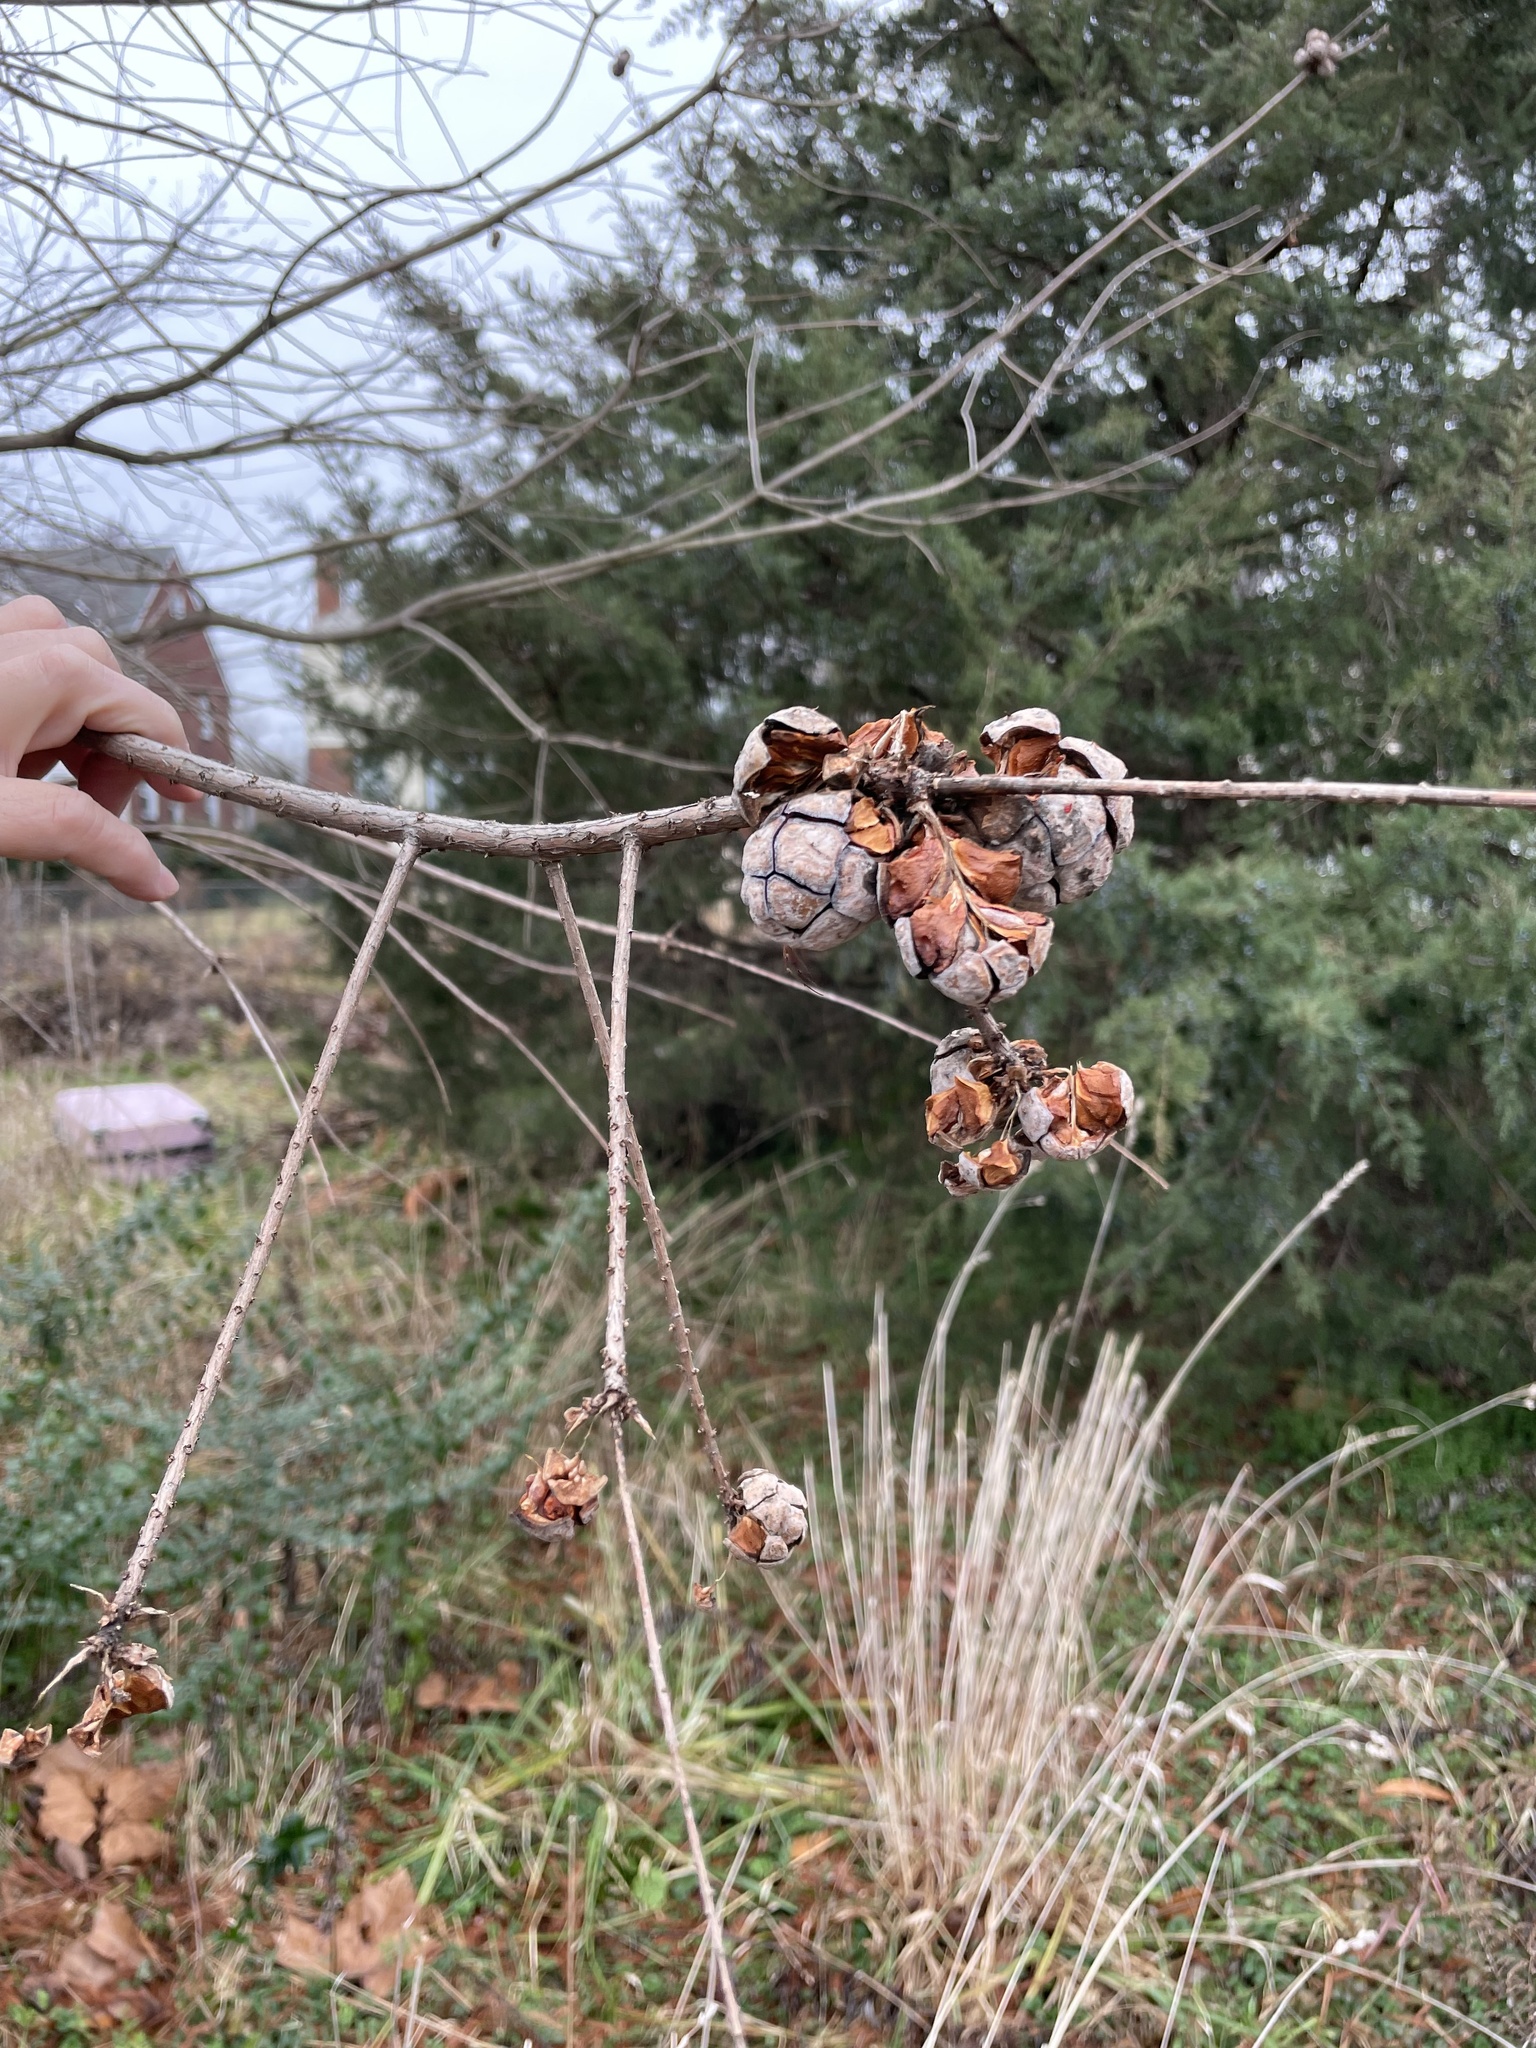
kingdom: Plantae
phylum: Tracheophyta
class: Pinopsida
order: Pinales
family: Cupressaceae
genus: Taxodium
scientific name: Taxodium distichum
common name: Bald cypress
